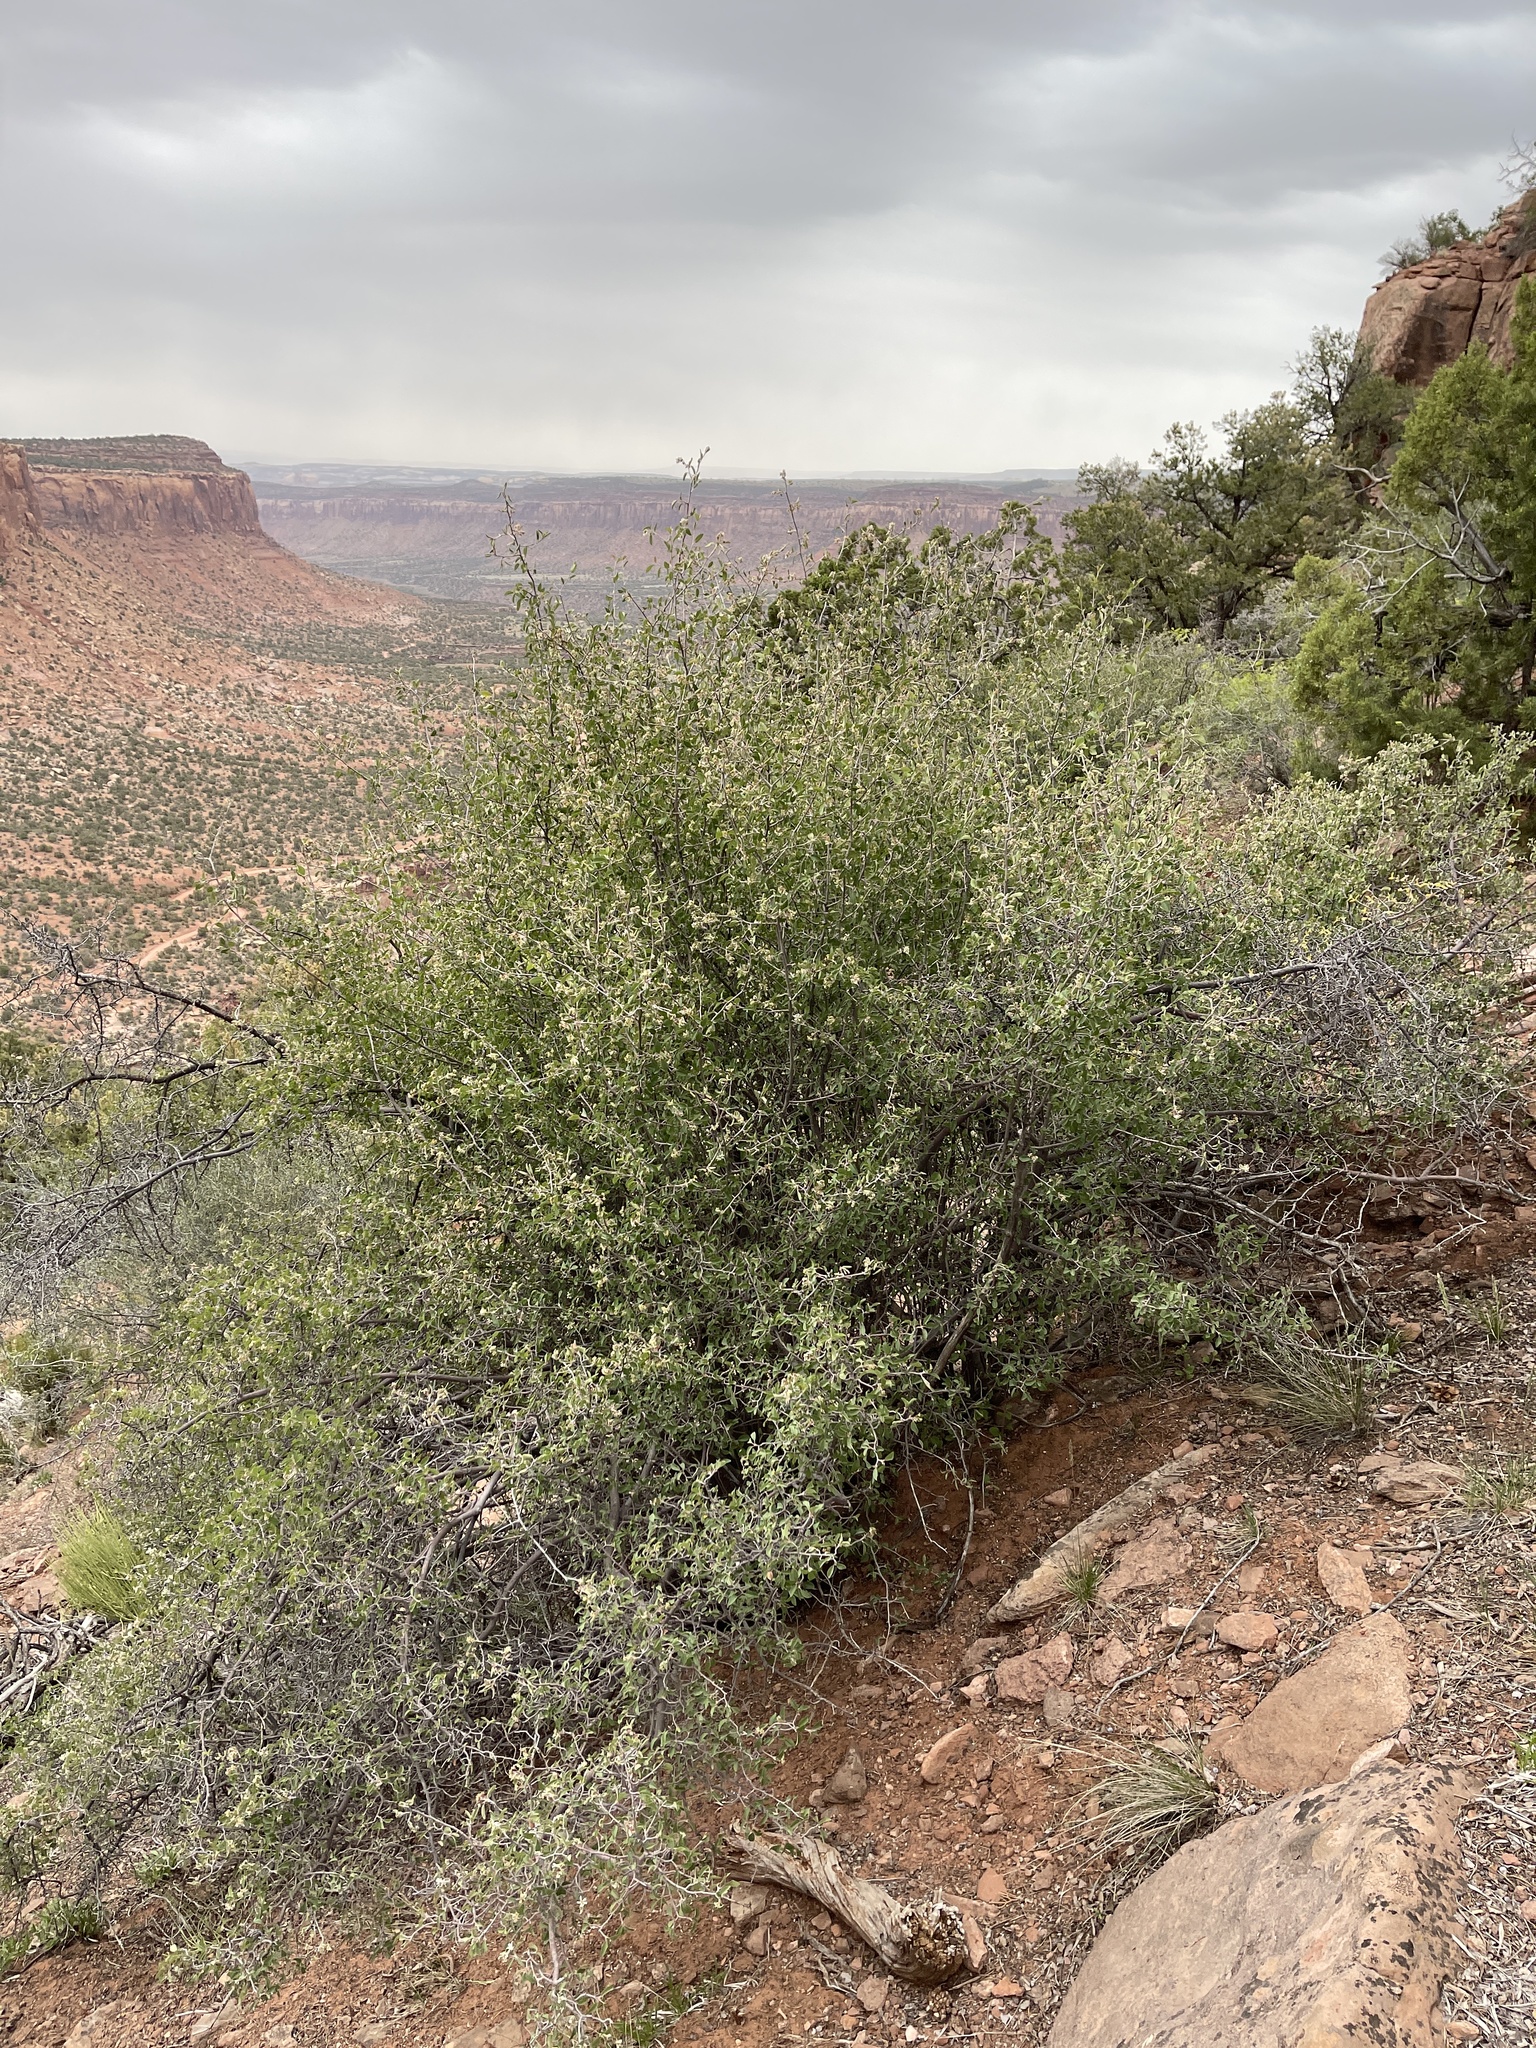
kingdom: Plantae
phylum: Tracheophyta
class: Magnoliopsida
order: Rosales
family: Rosaceae
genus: Amelanchier
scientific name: Amelanchier utahensis
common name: Utah serviceberry
